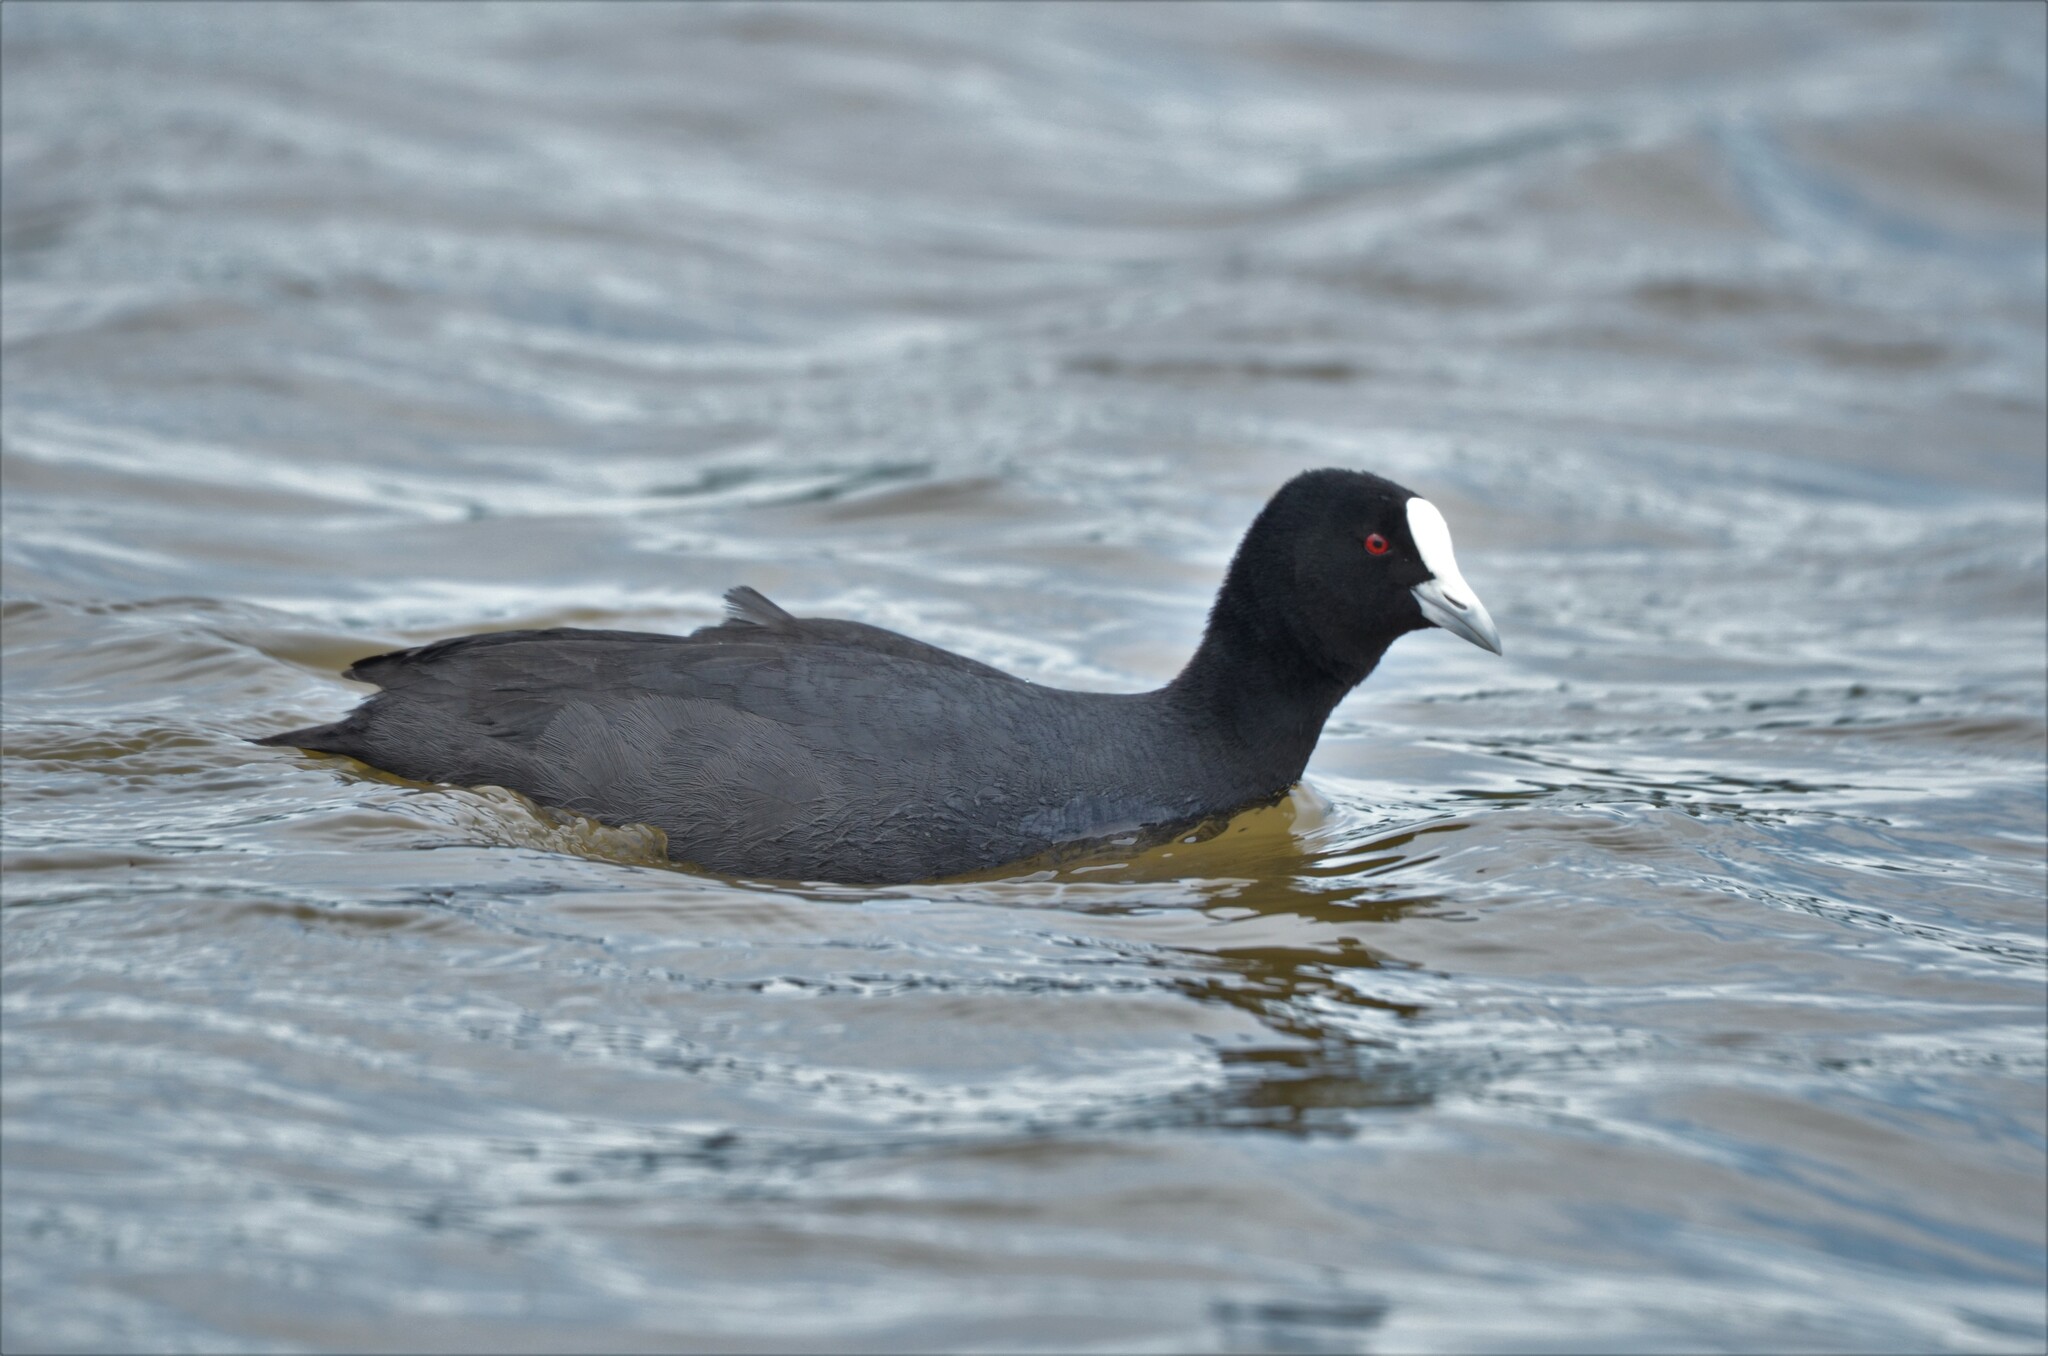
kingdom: Animalia
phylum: Chordata
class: Aves
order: Gruiformes
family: Rallidae
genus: Fulica
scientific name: Fulica atra
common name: Eurasian coot
